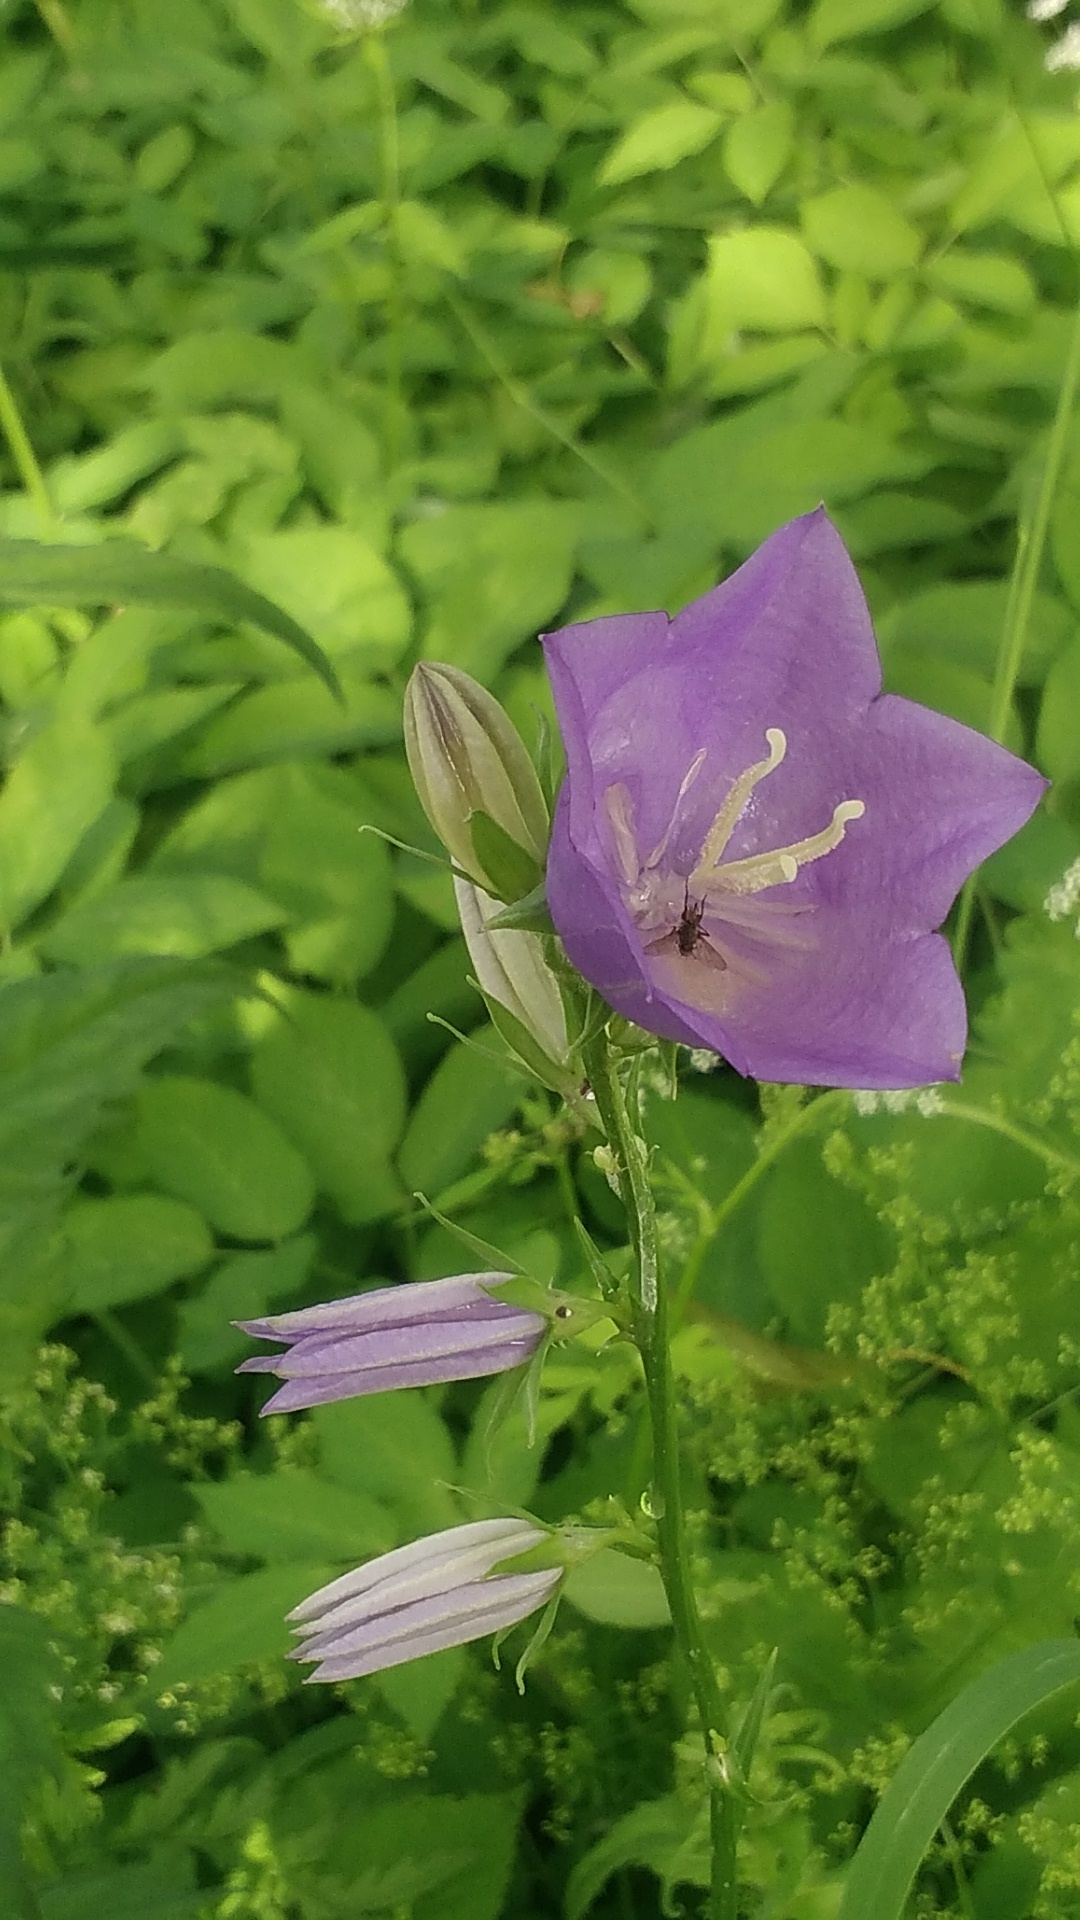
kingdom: Plantae
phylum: Tracheophyta
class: Magnoliopsida
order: Asterales
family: Campanulaceae
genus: Campanula
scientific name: Campanula persicifolia
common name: Peach-leaved bellflower
